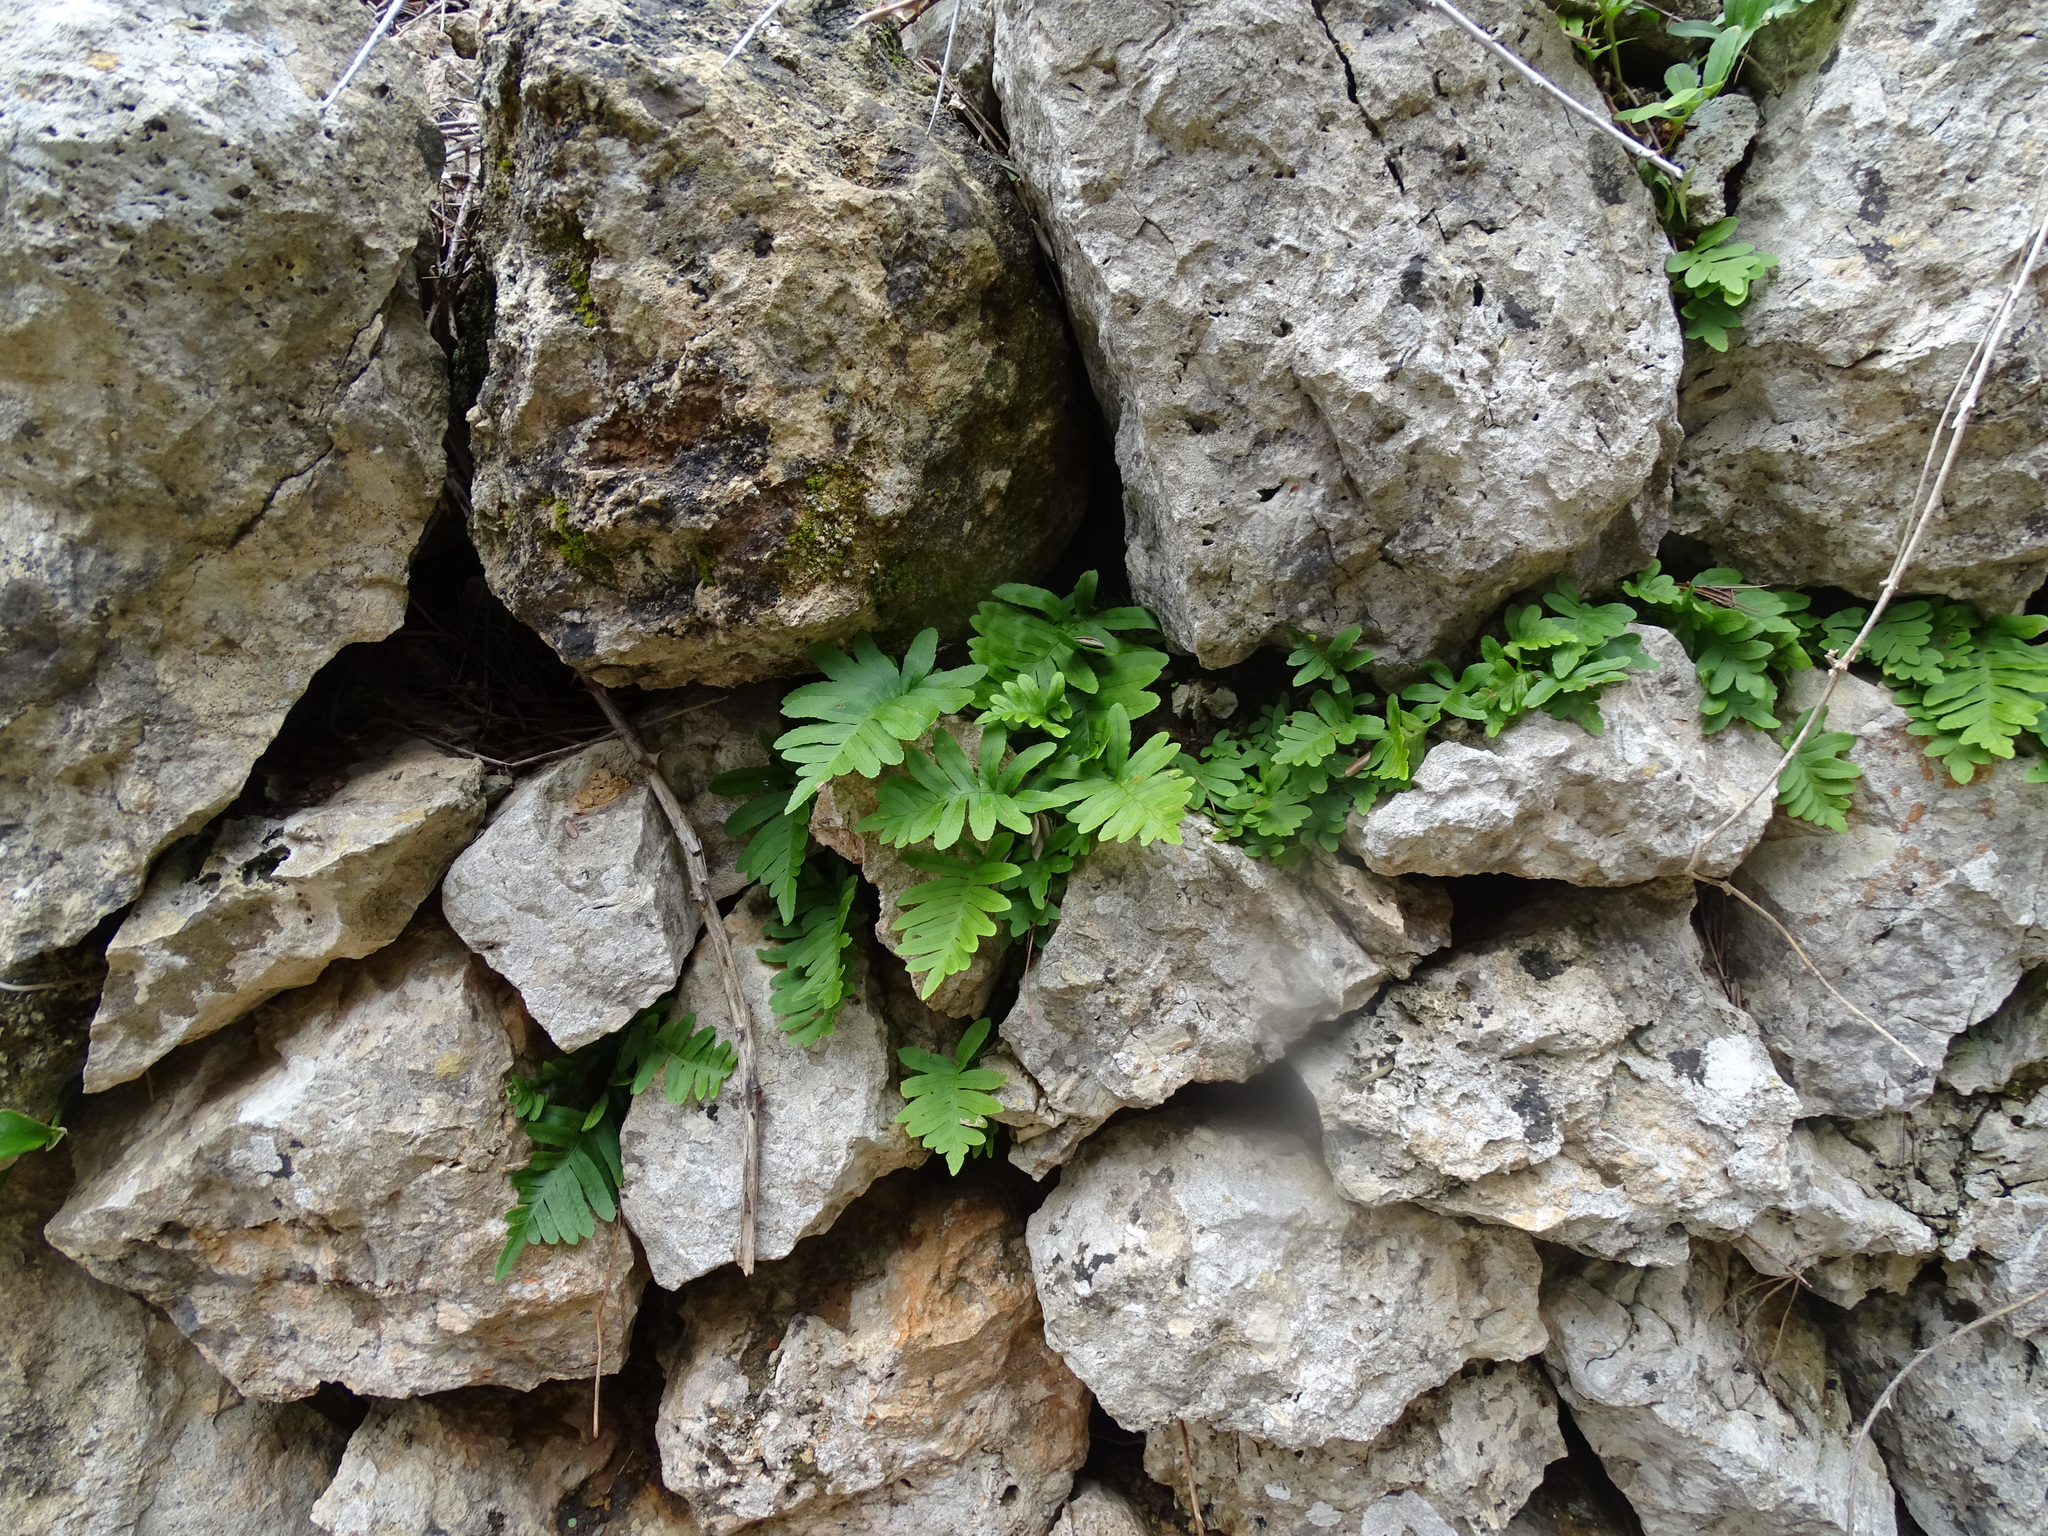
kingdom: Plantae
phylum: Tracheophyta
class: Polypodiopsida
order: Polypodiales
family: Polypodiaceae
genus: Polypodium
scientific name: Polypodium cambricum
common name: Southern polypody
